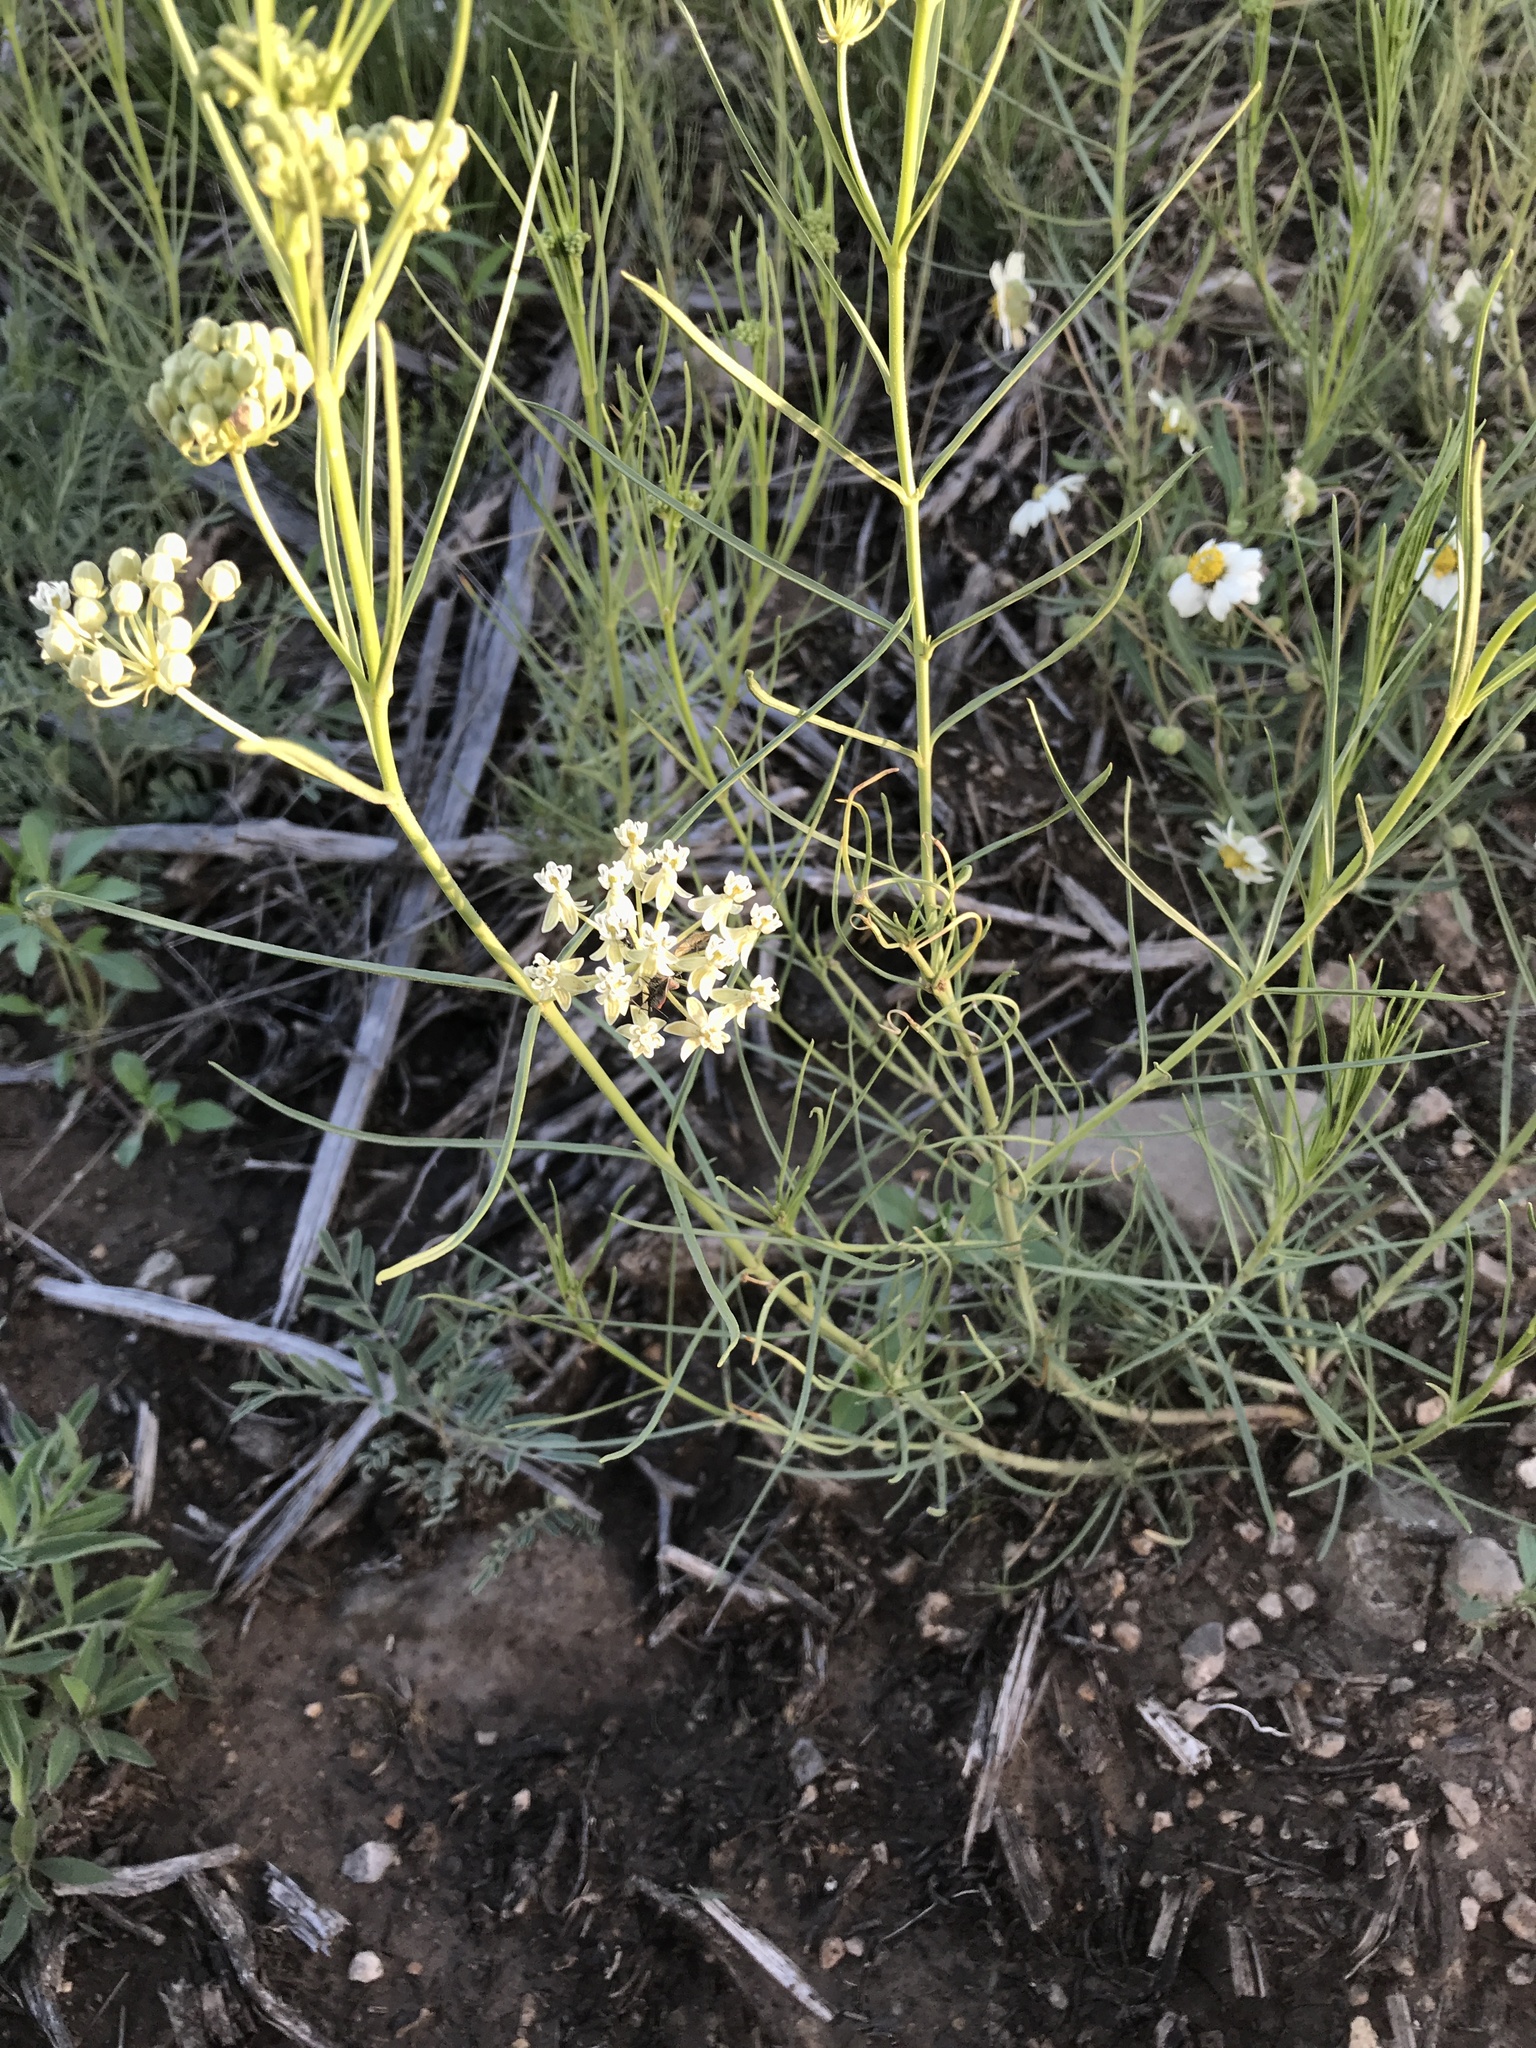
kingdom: Plantae
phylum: Tracheophyta
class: Magnoliopsida
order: Gentianales
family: Apocynaceae
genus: Asclepias
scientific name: Asclepias subverticillata
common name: Horsetail milkweed
